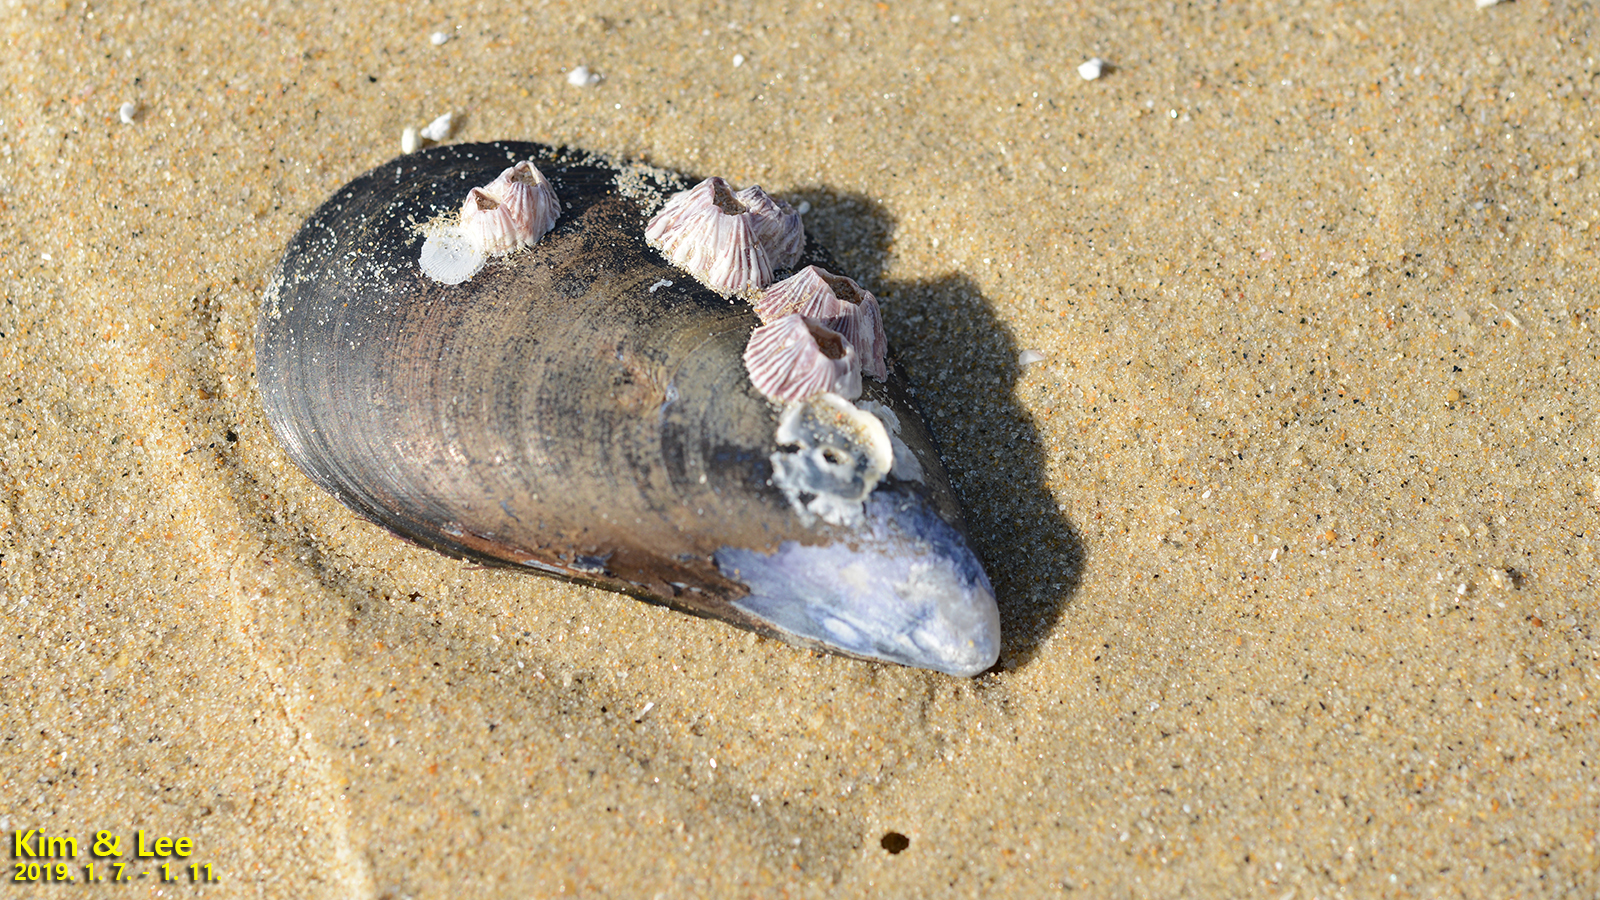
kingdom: Animalia
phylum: Arthropoda
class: Maxillopoda
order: Sessilia
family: Balanidae
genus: Balanus
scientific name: Balanus trigonus
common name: Triangle barnacle
